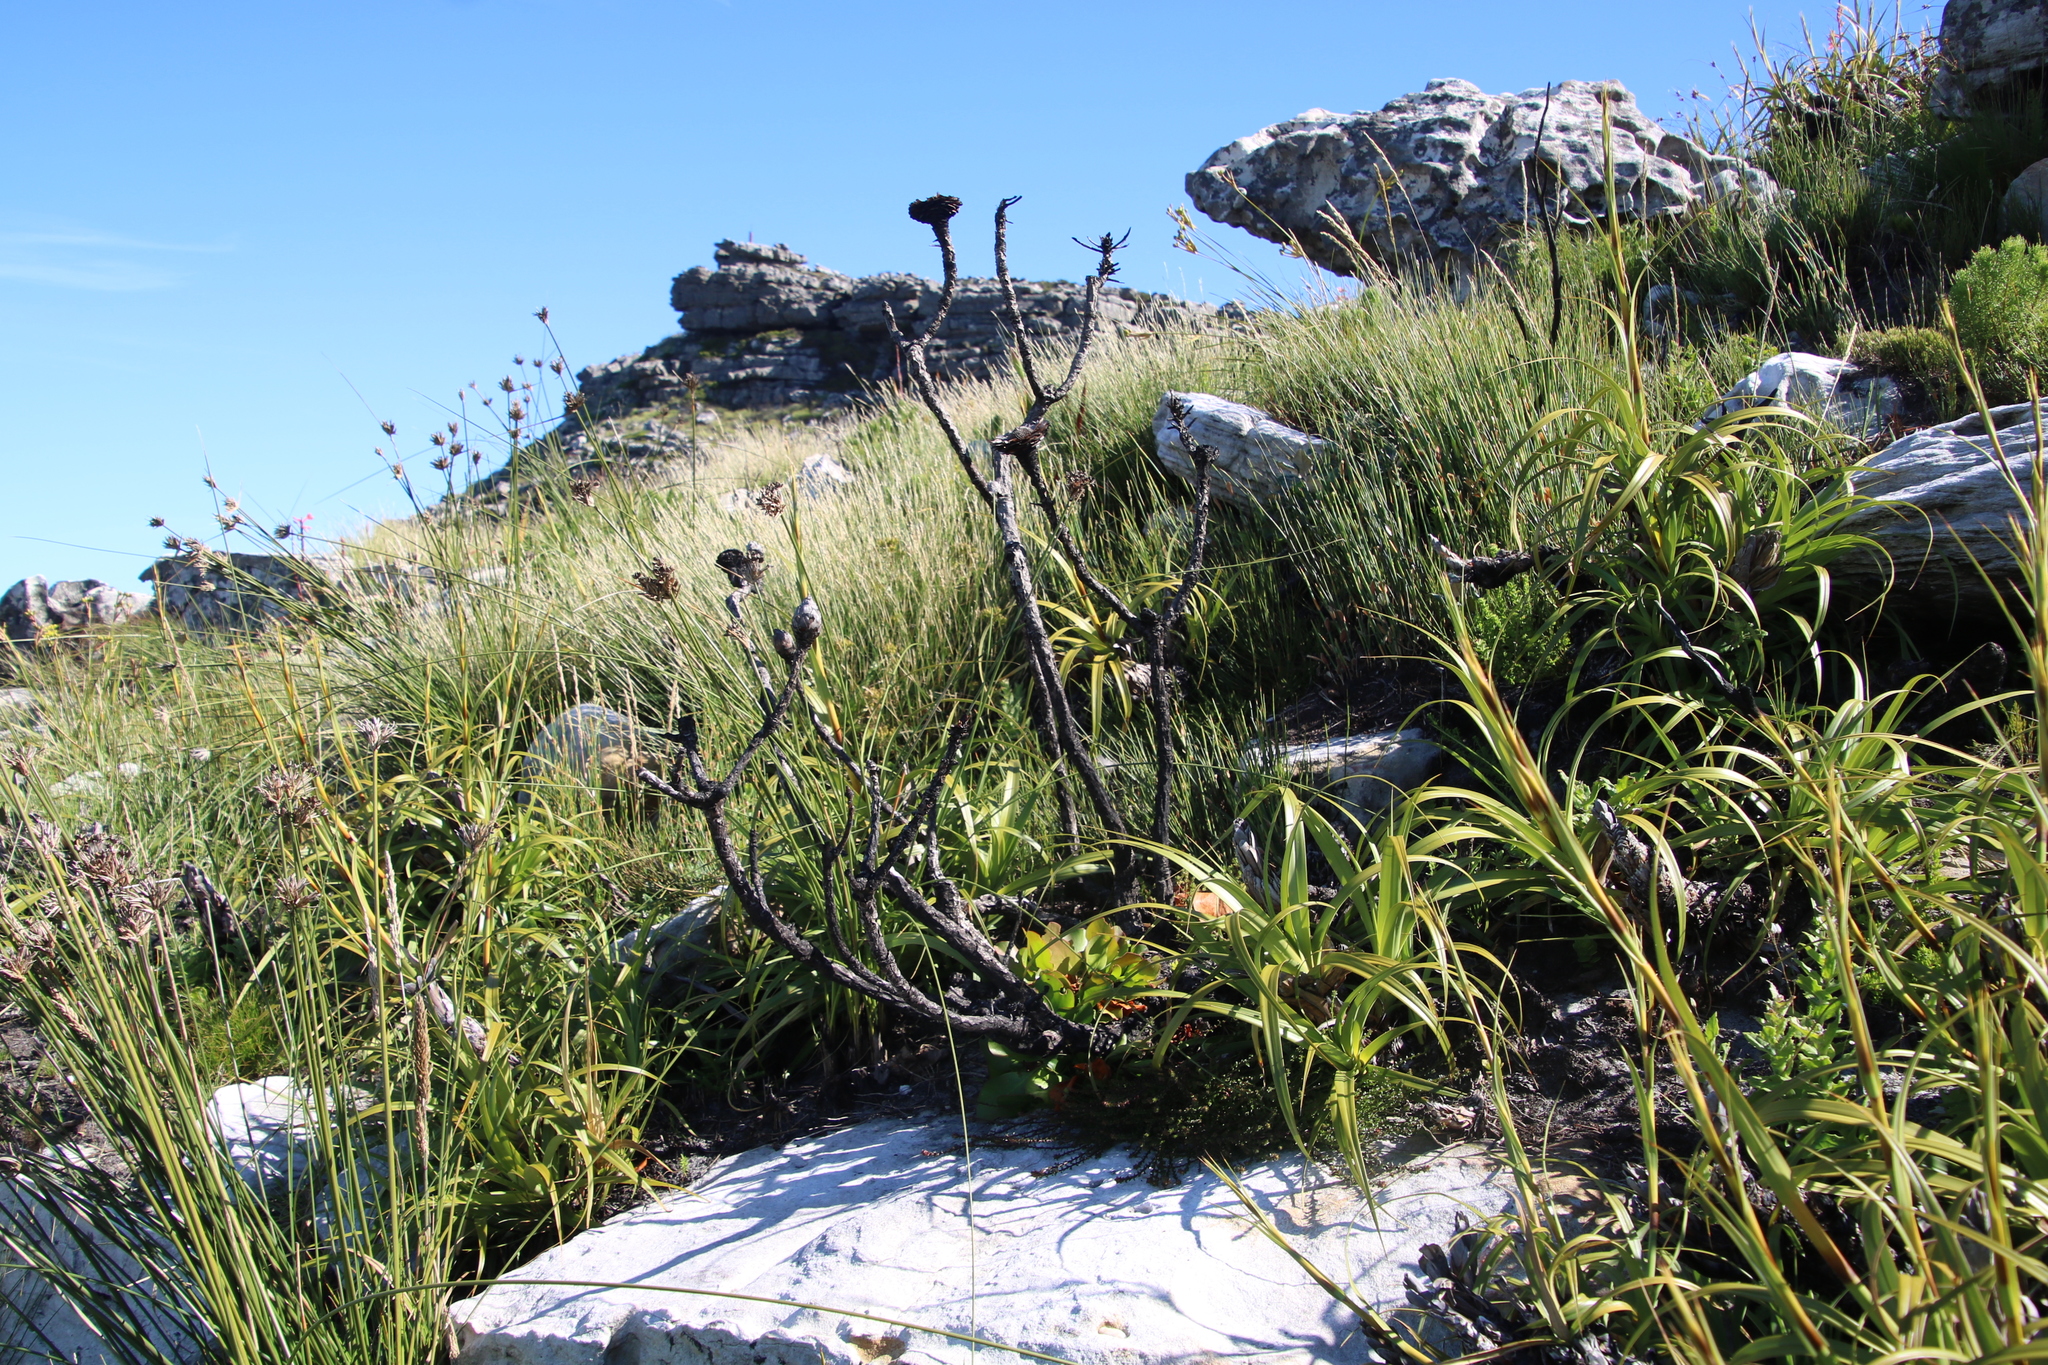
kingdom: Plantae
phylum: Tracheophyta
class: Magnoliopsida
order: Proteales
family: Proteaceae
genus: Protea
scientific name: Protea cynaroides
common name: King protea
